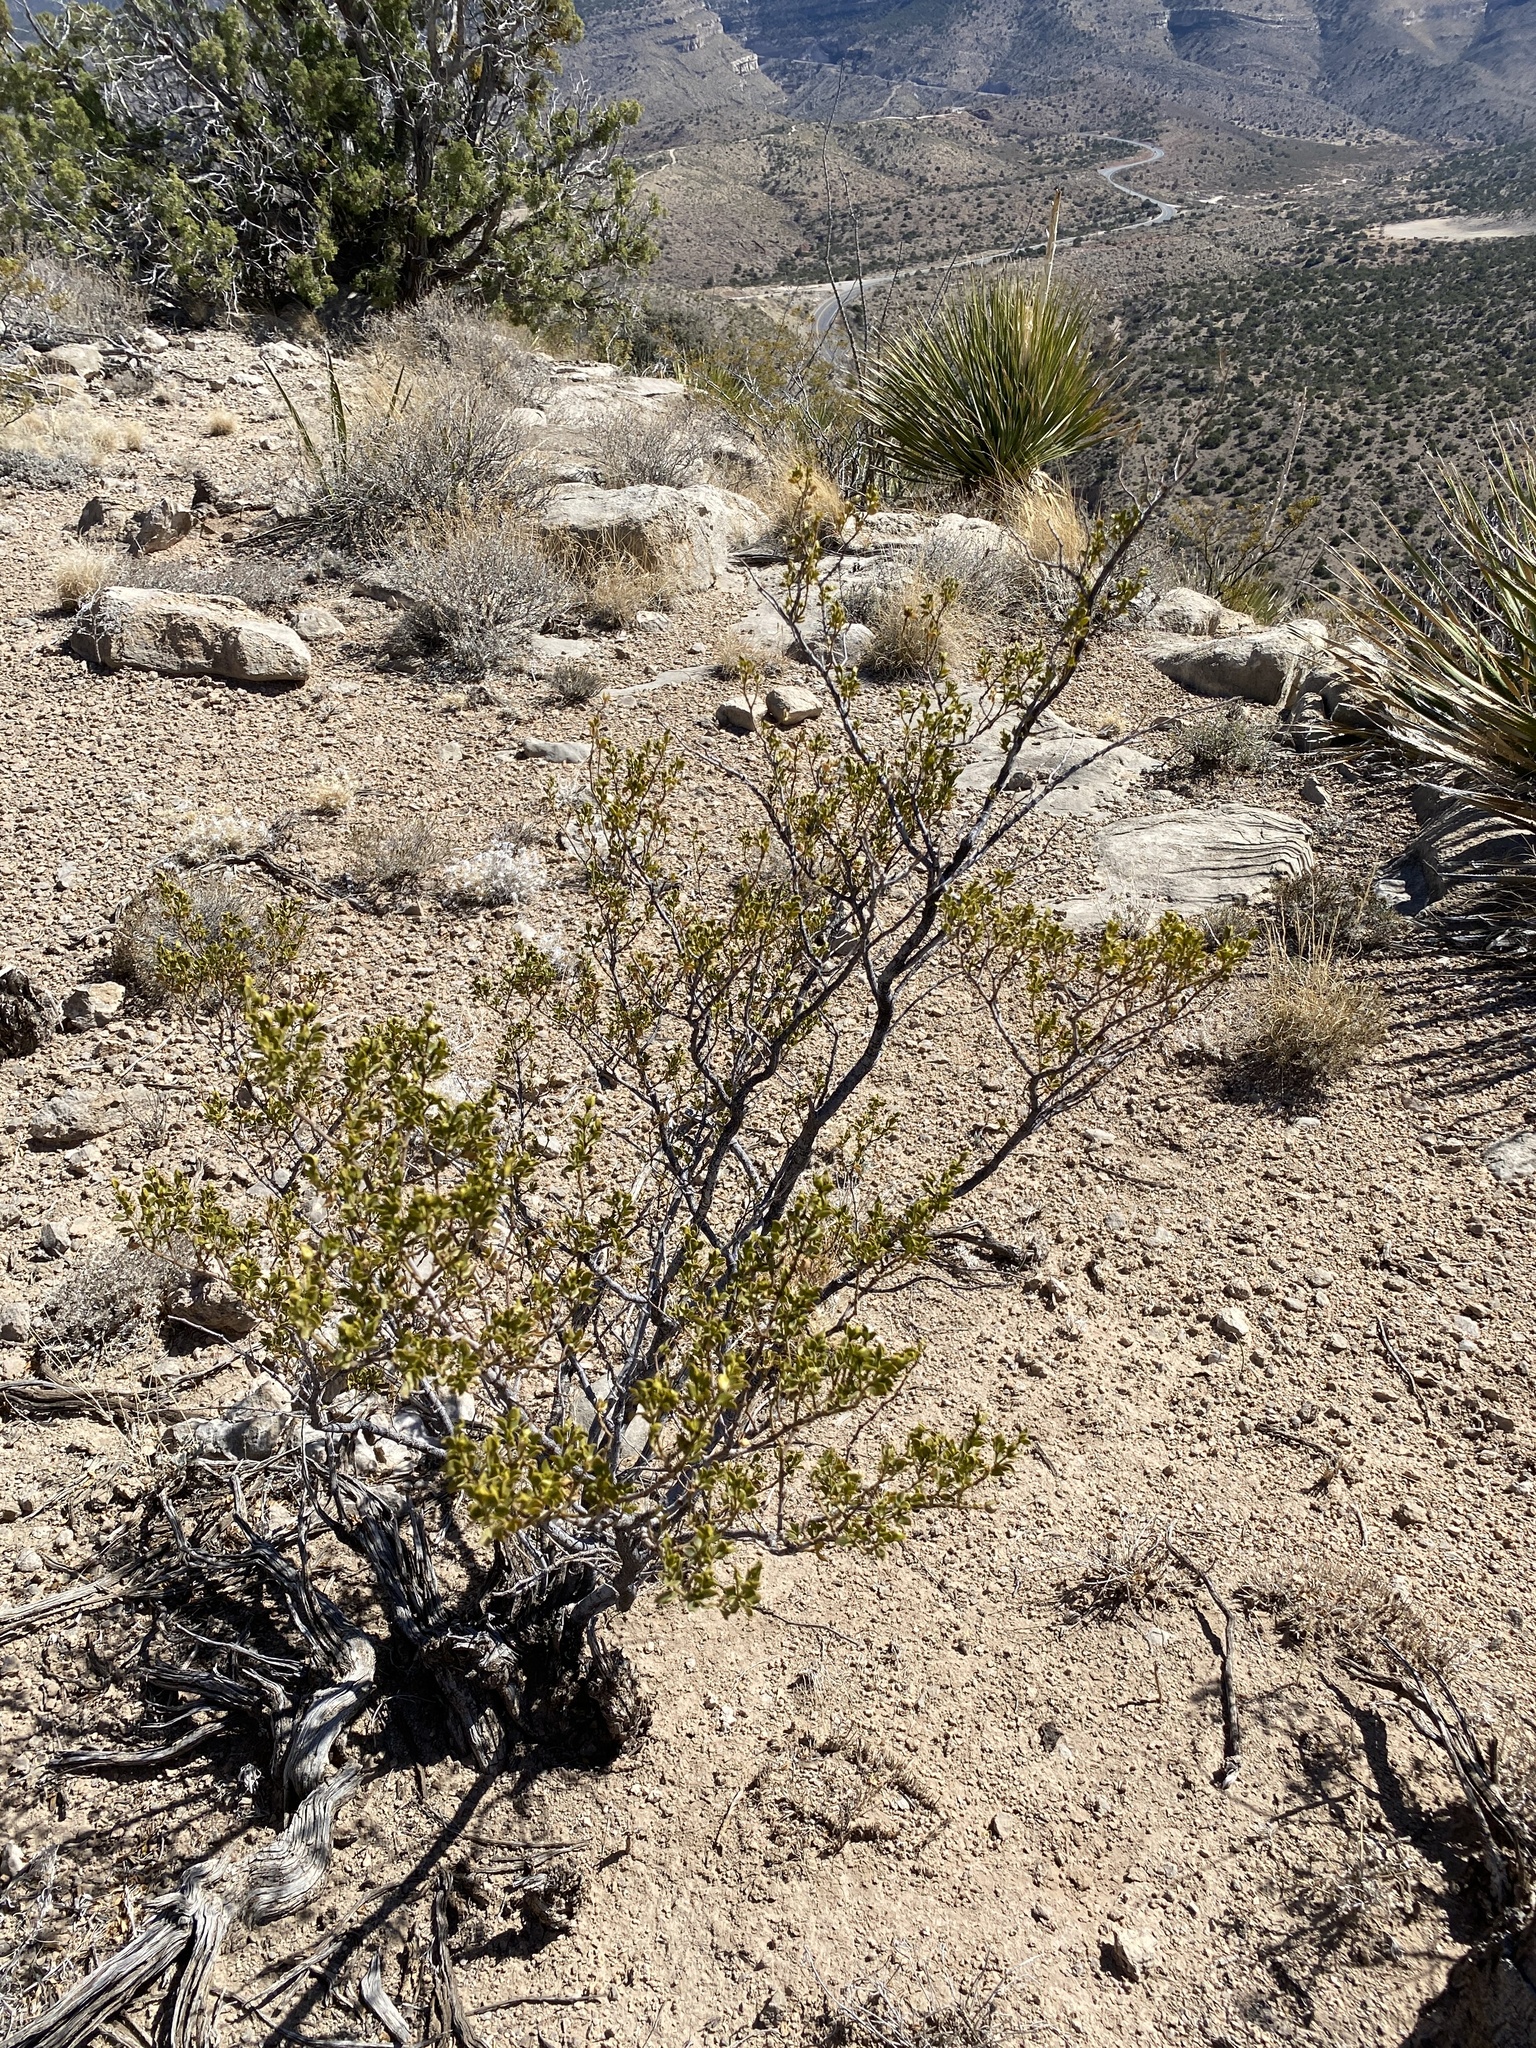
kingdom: Plantae
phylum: Tracheophyta
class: Magnoliopsida
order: Zygophyllales
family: Zygophyllaceae
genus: Larrea
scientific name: Larrea tridentata
